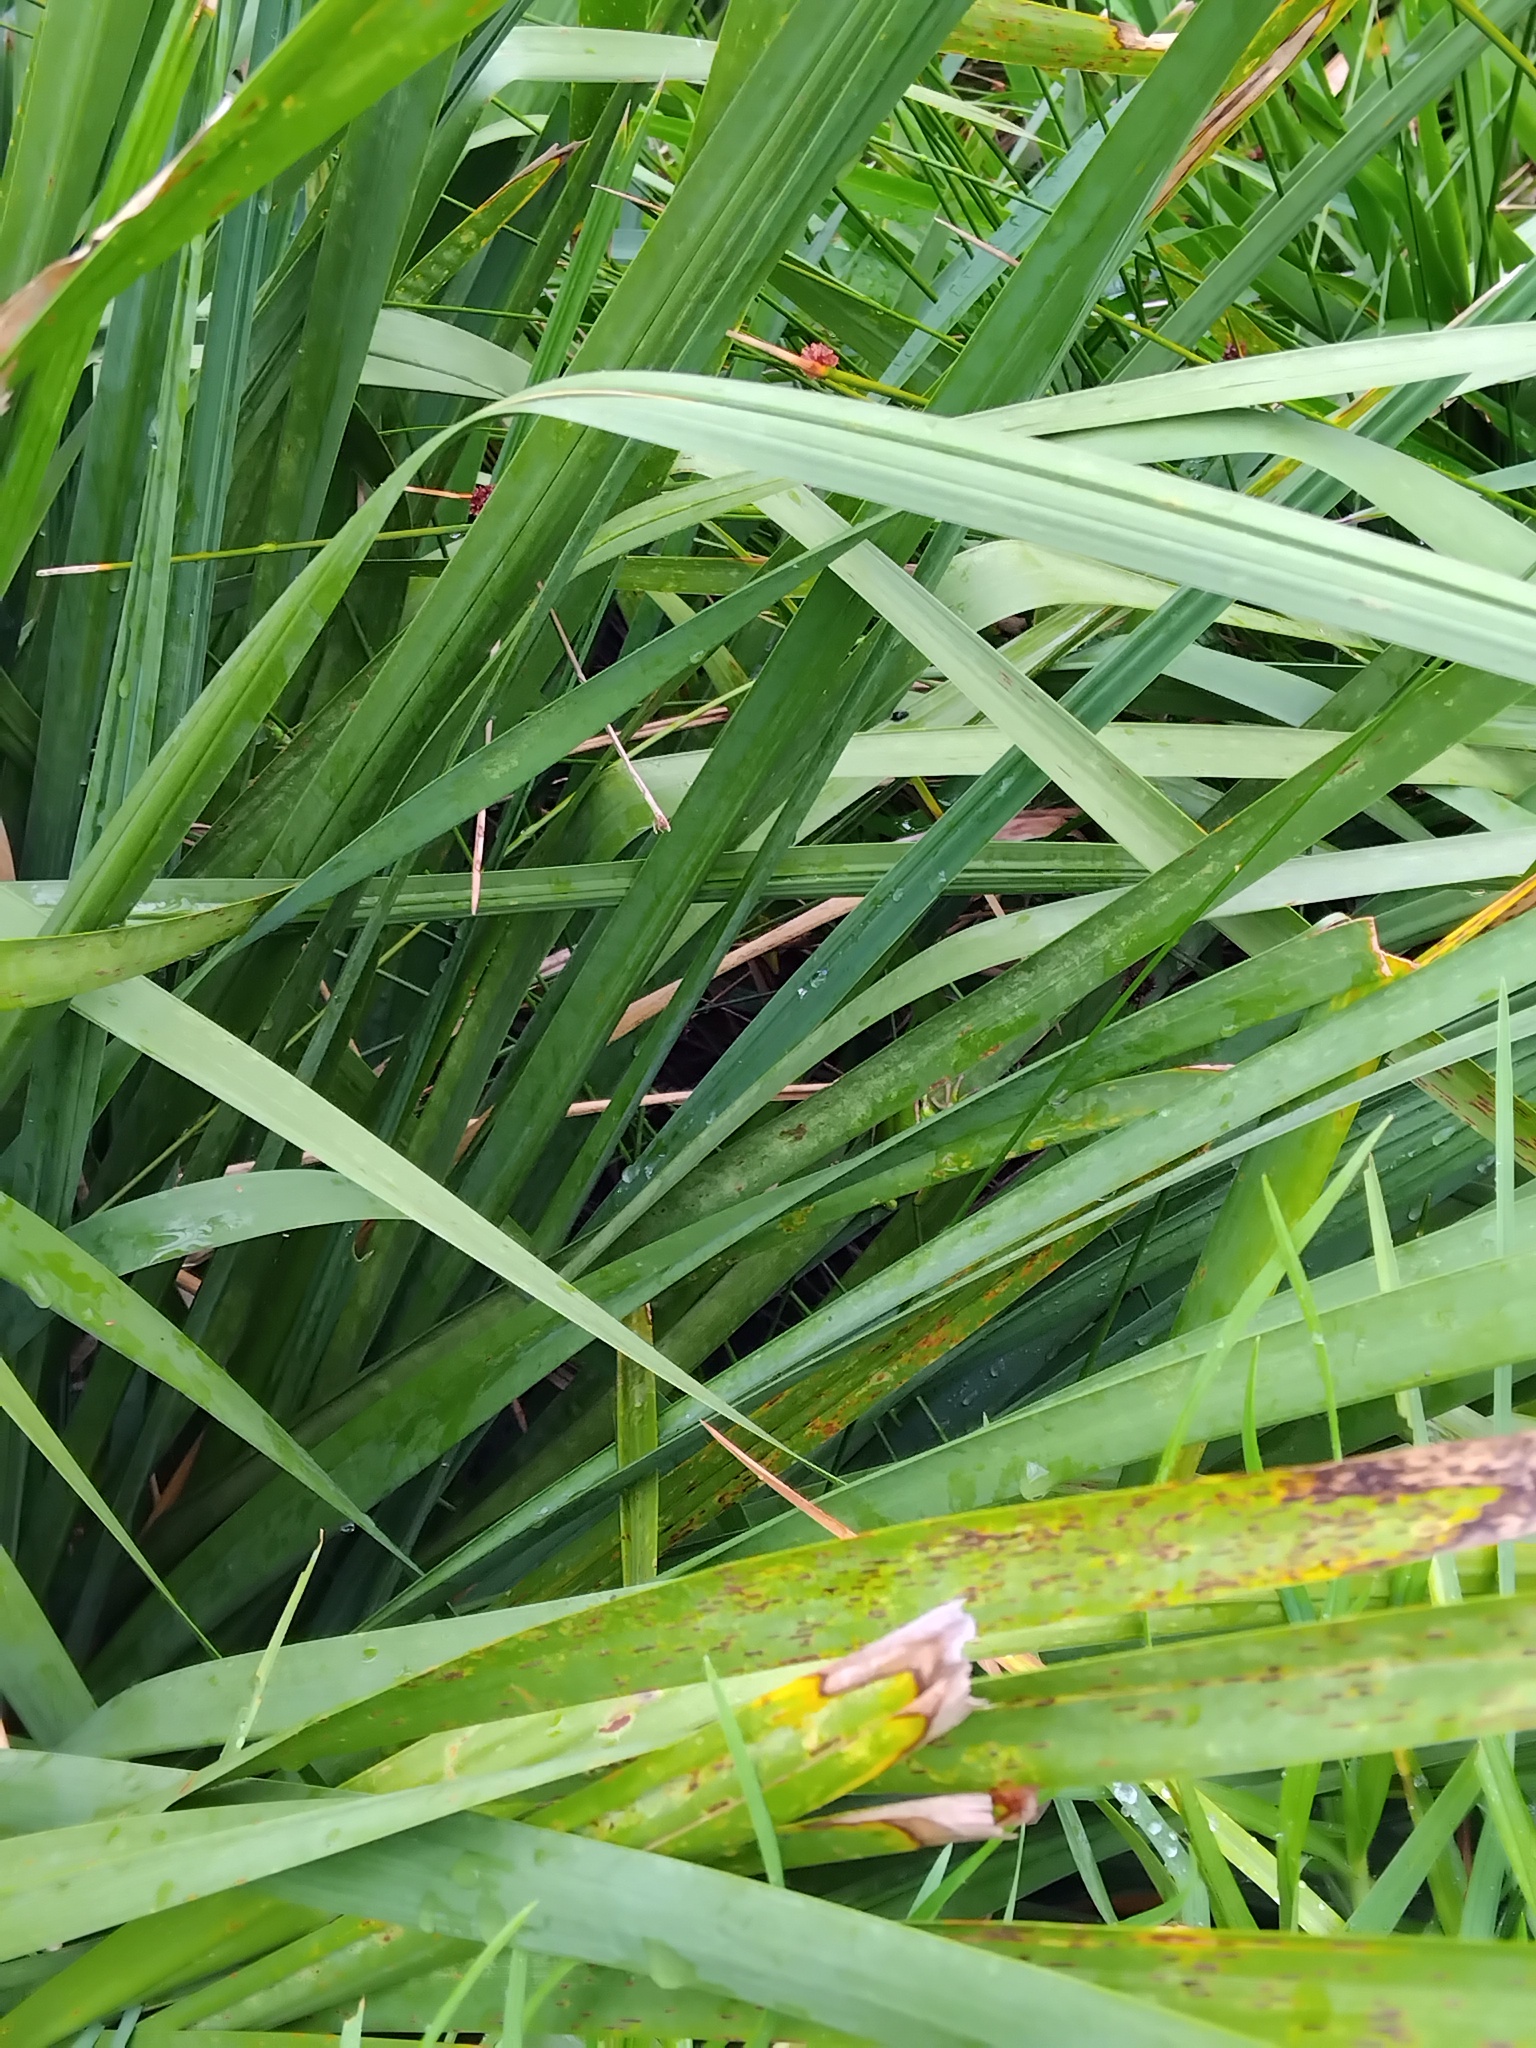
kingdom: Animalia
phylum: Chordata
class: Amphibia
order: Anura
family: Pelodryadidae
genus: Ranoidea
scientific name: Ranoidea aurea
